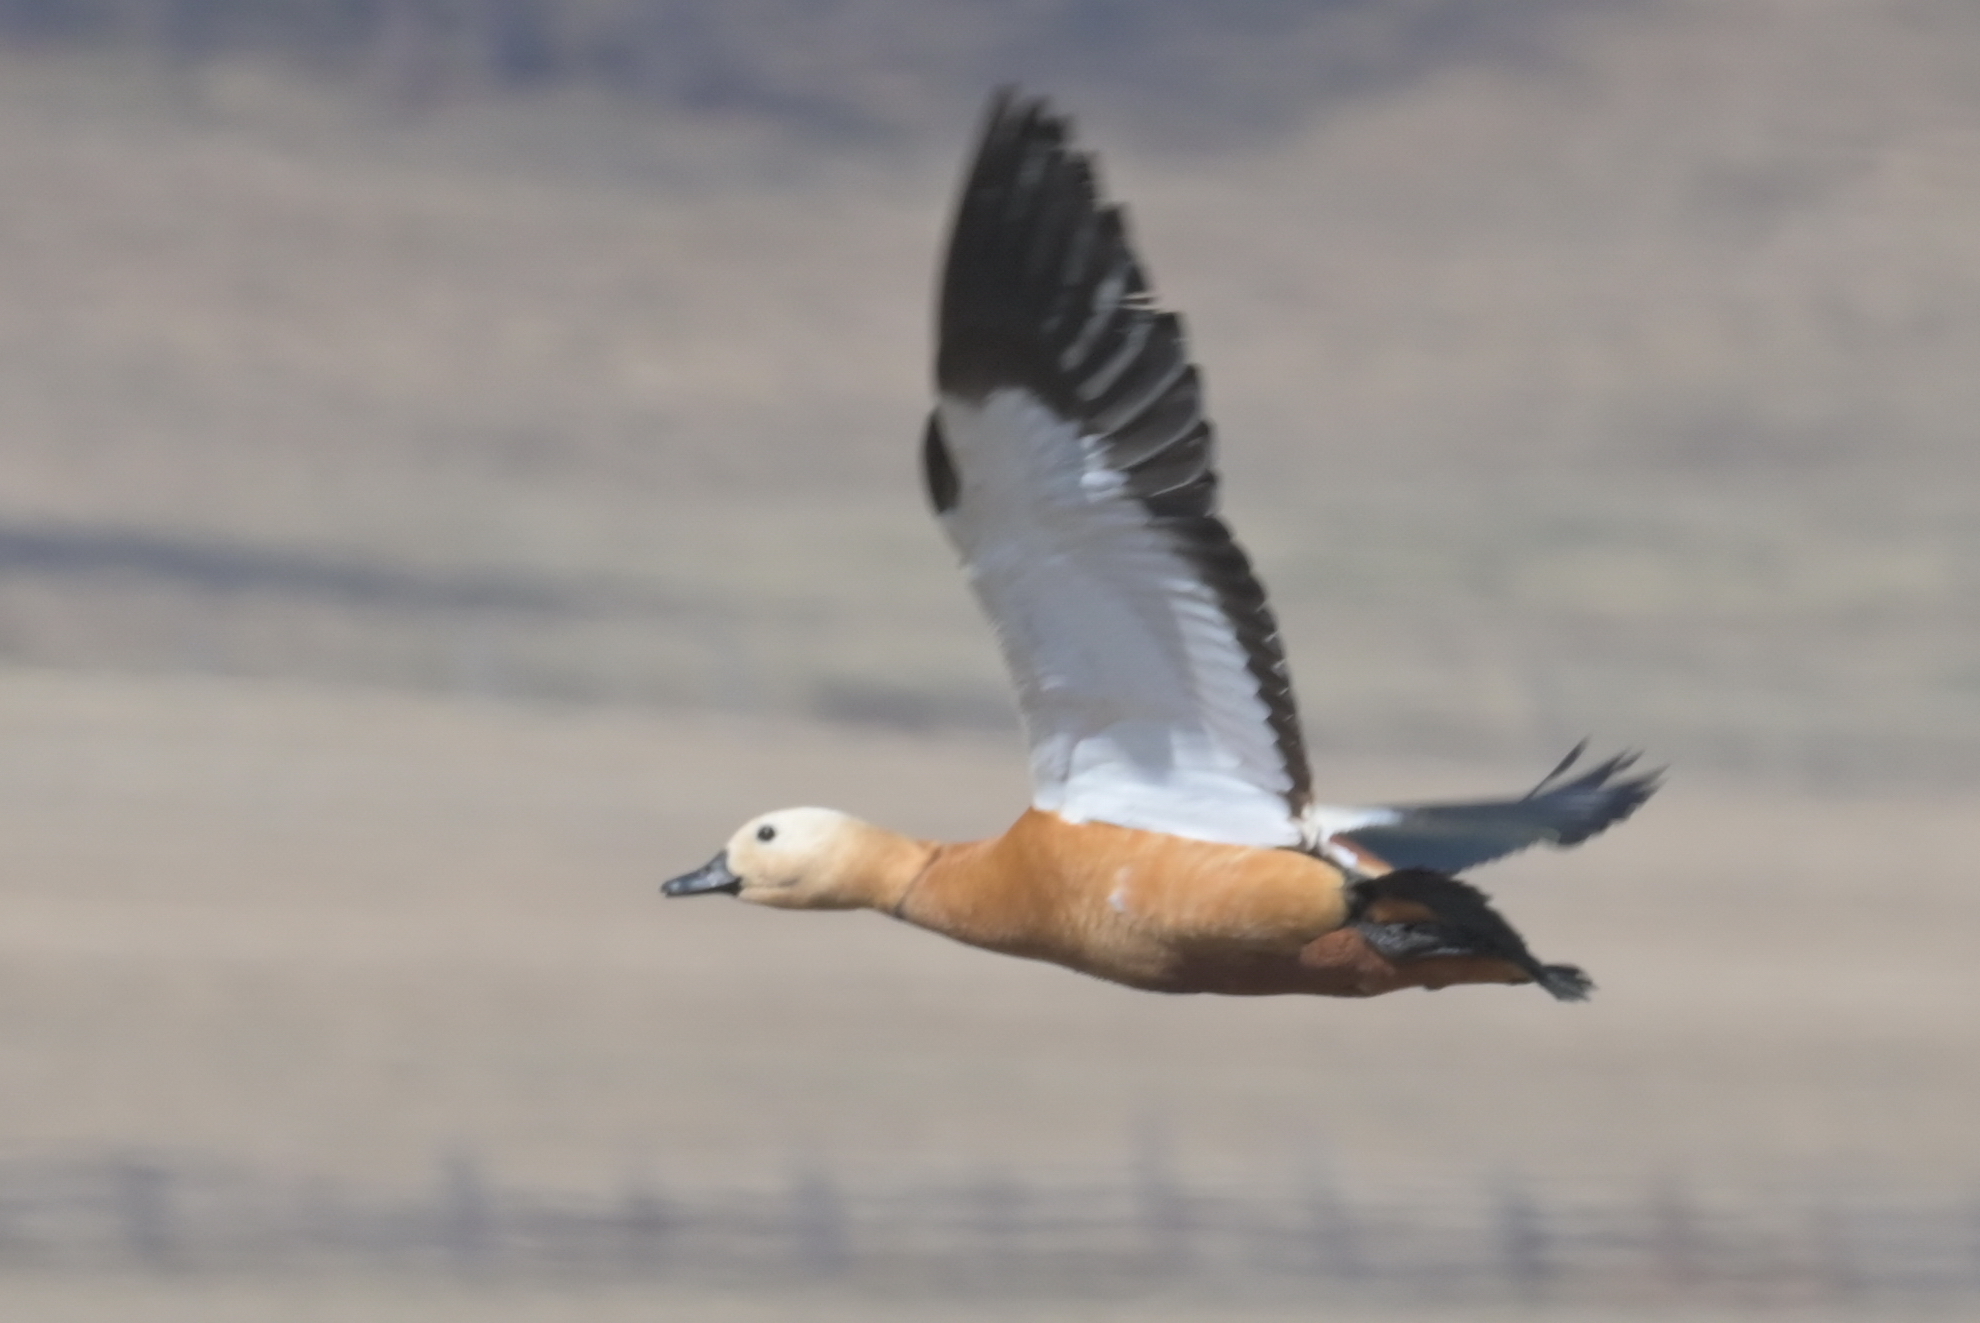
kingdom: Animalia
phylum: Chordata
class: Aves
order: Anseriformes
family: Anatidae
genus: Tadorna
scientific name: Tadorna ferruginea
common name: Ruddy shelduck
